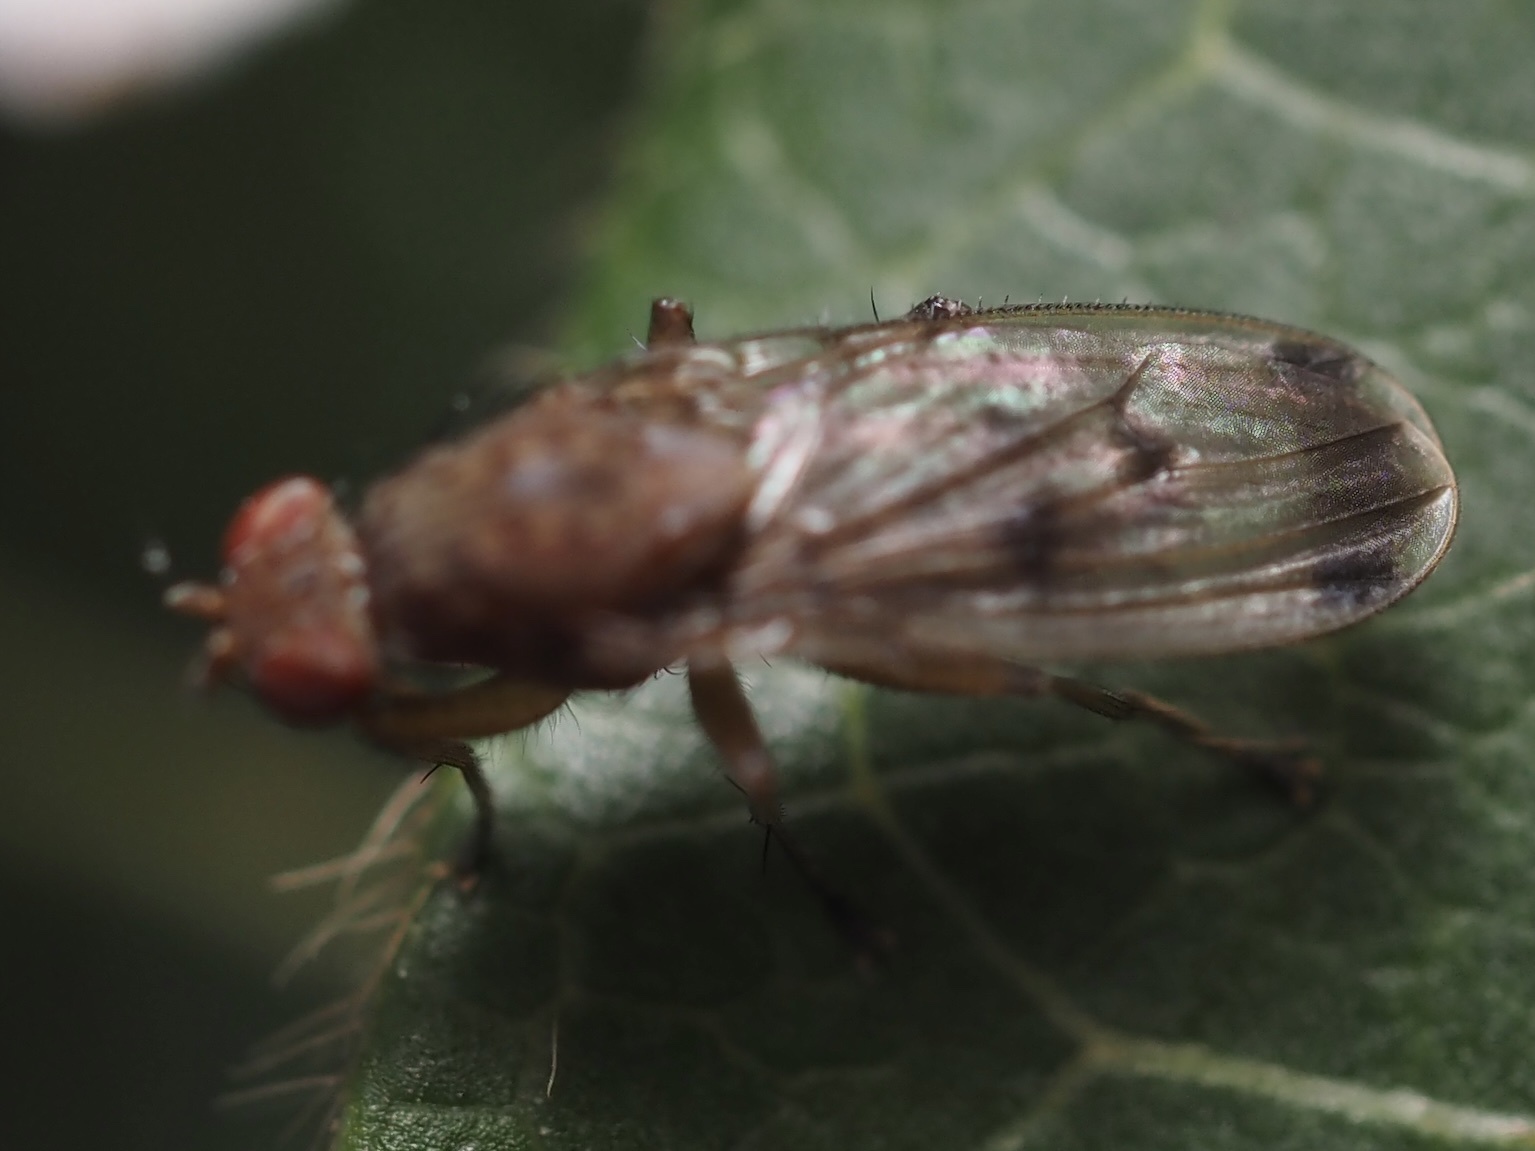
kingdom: Animalia
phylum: Arthropoda
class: Insecta
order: Diptera
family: Heleomyzidae
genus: Suillia
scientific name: Suillia variegata
